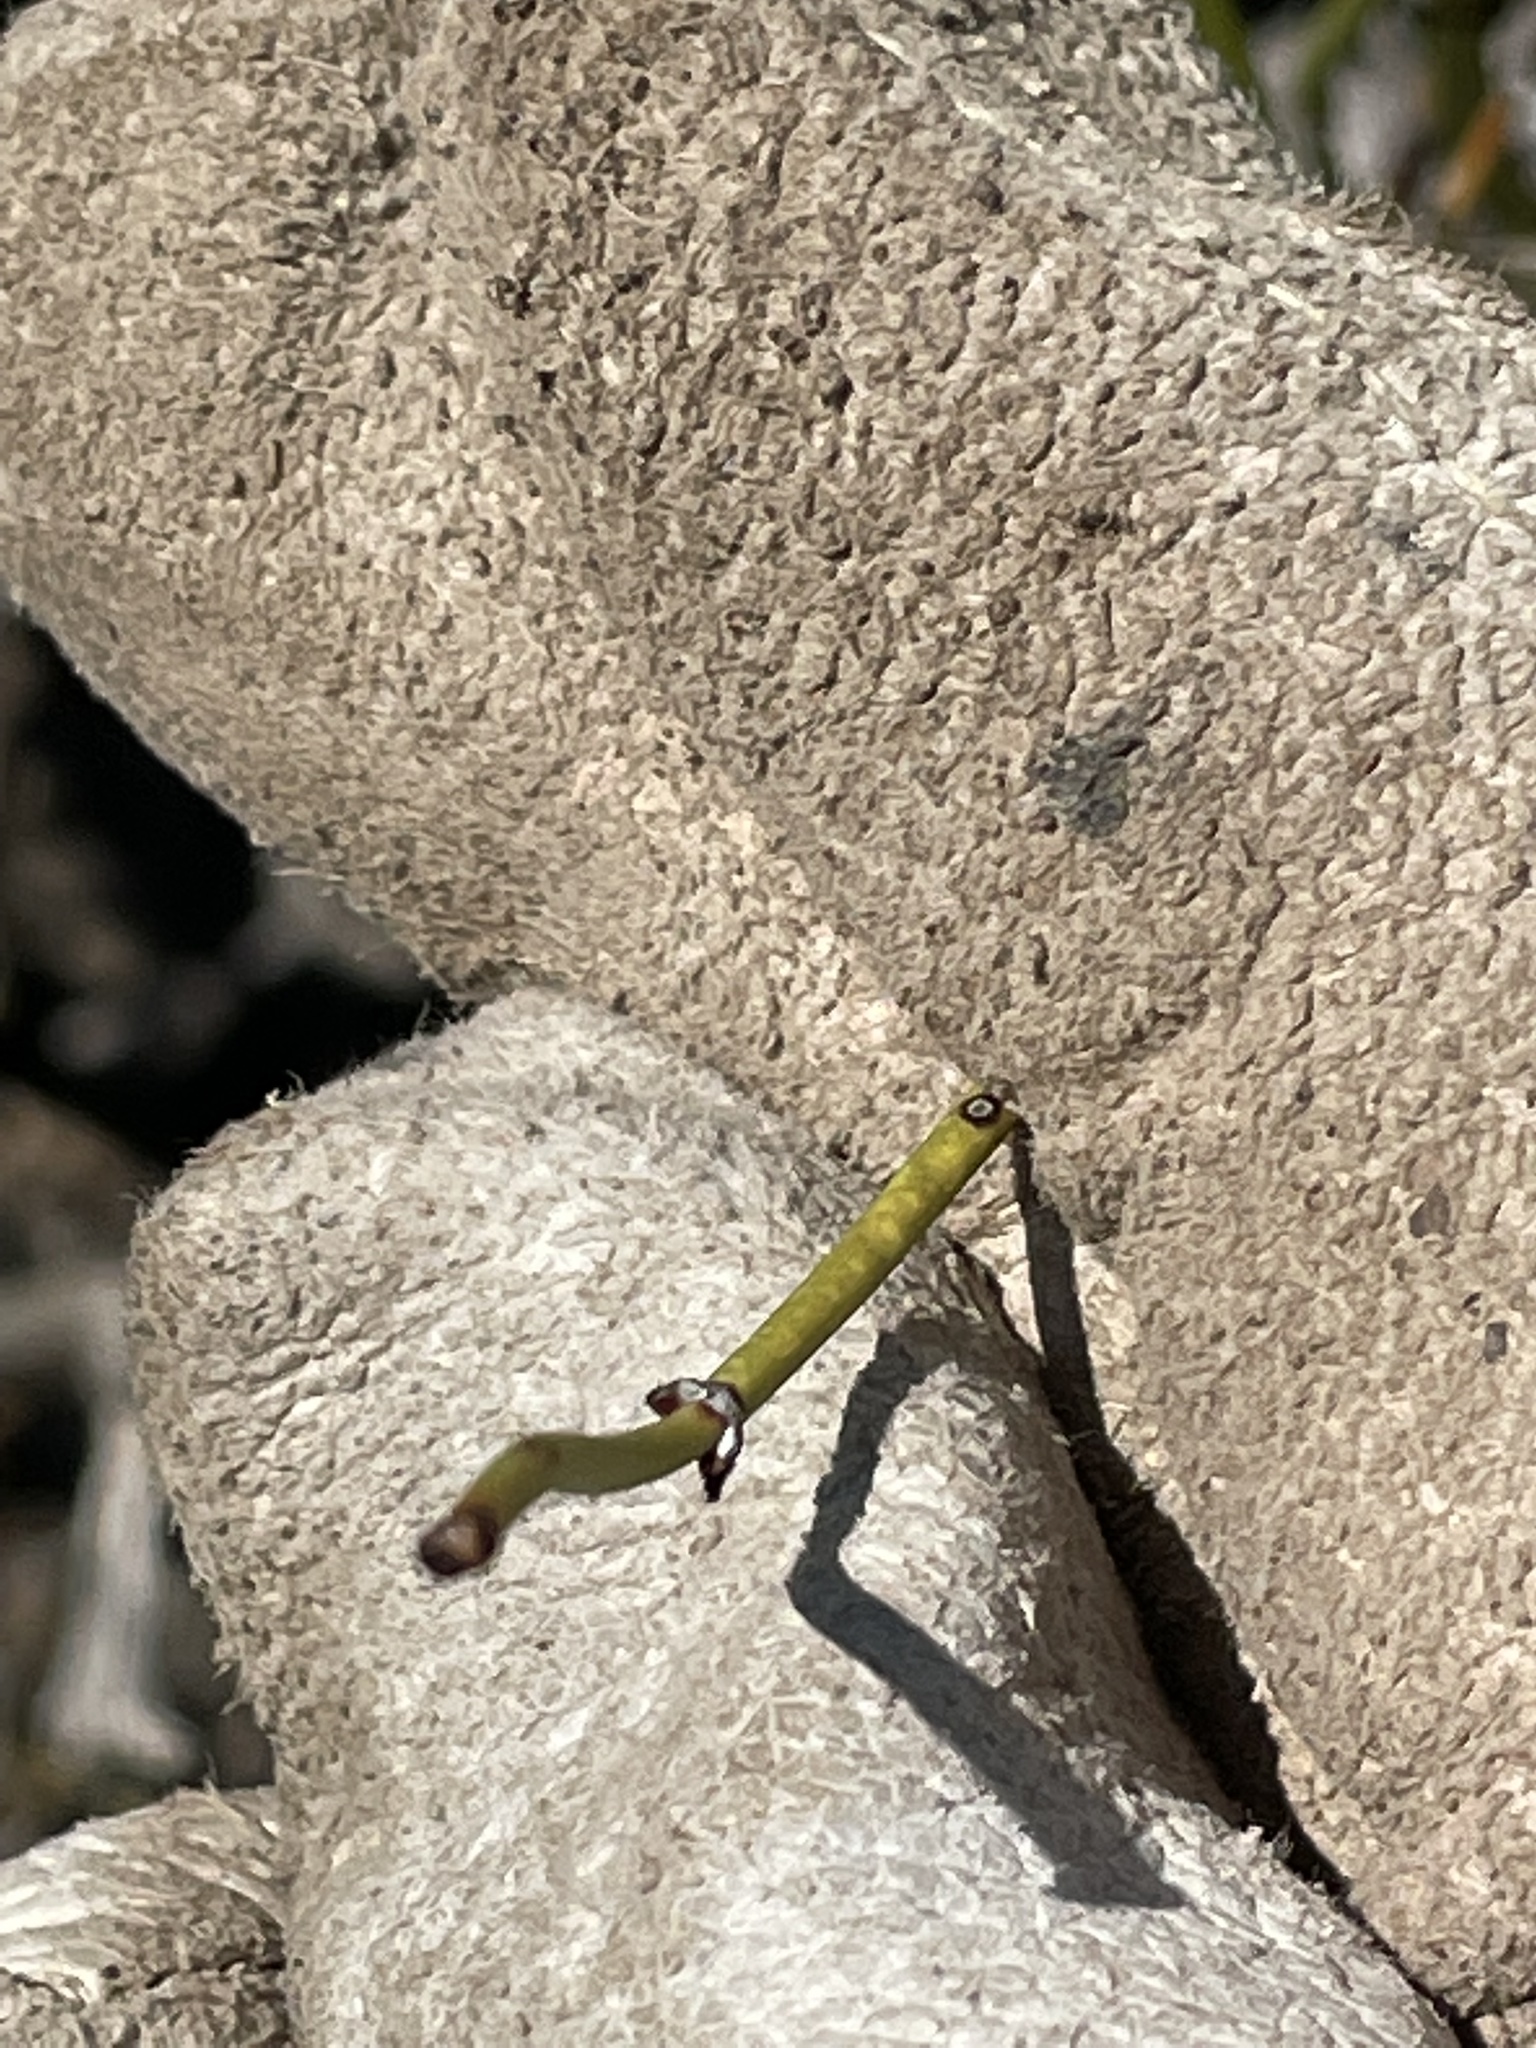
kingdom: Plantae
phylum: Tracheophyta
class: Gnetopsida
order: Ephedrales
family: Ephedraceae
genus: Ephedra
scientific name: Ephedra viridis
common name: Green ephedra
